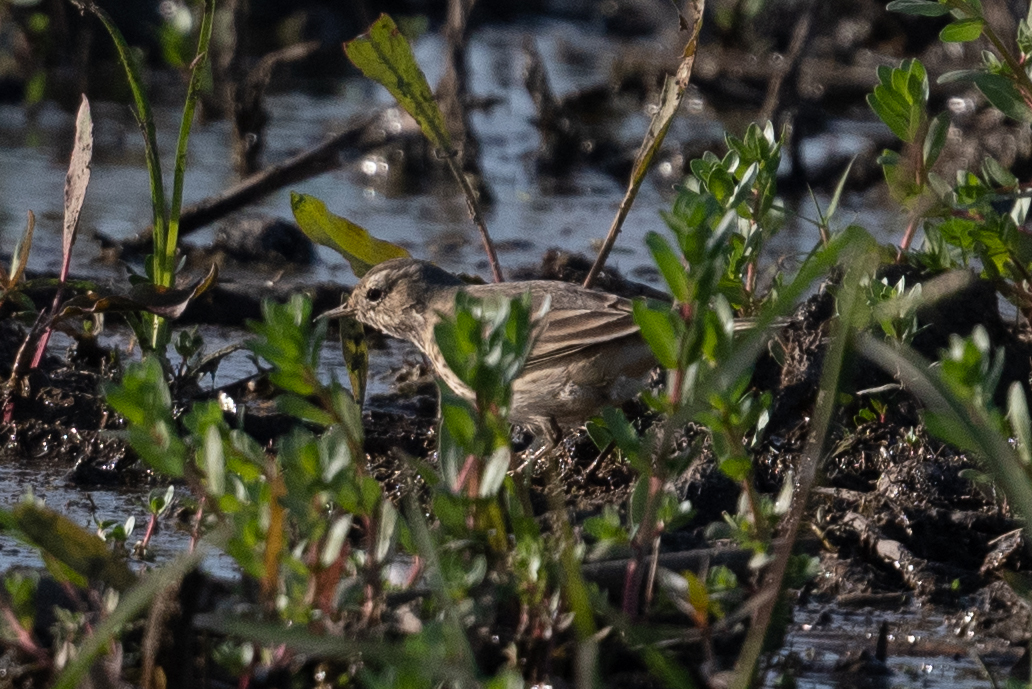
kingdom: Animalia
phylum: Chordata
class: Aves
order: Passeriformes
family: Motacillidae
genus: Anthus
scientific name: Anthus rubescens
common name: Buff-bellied pipit
